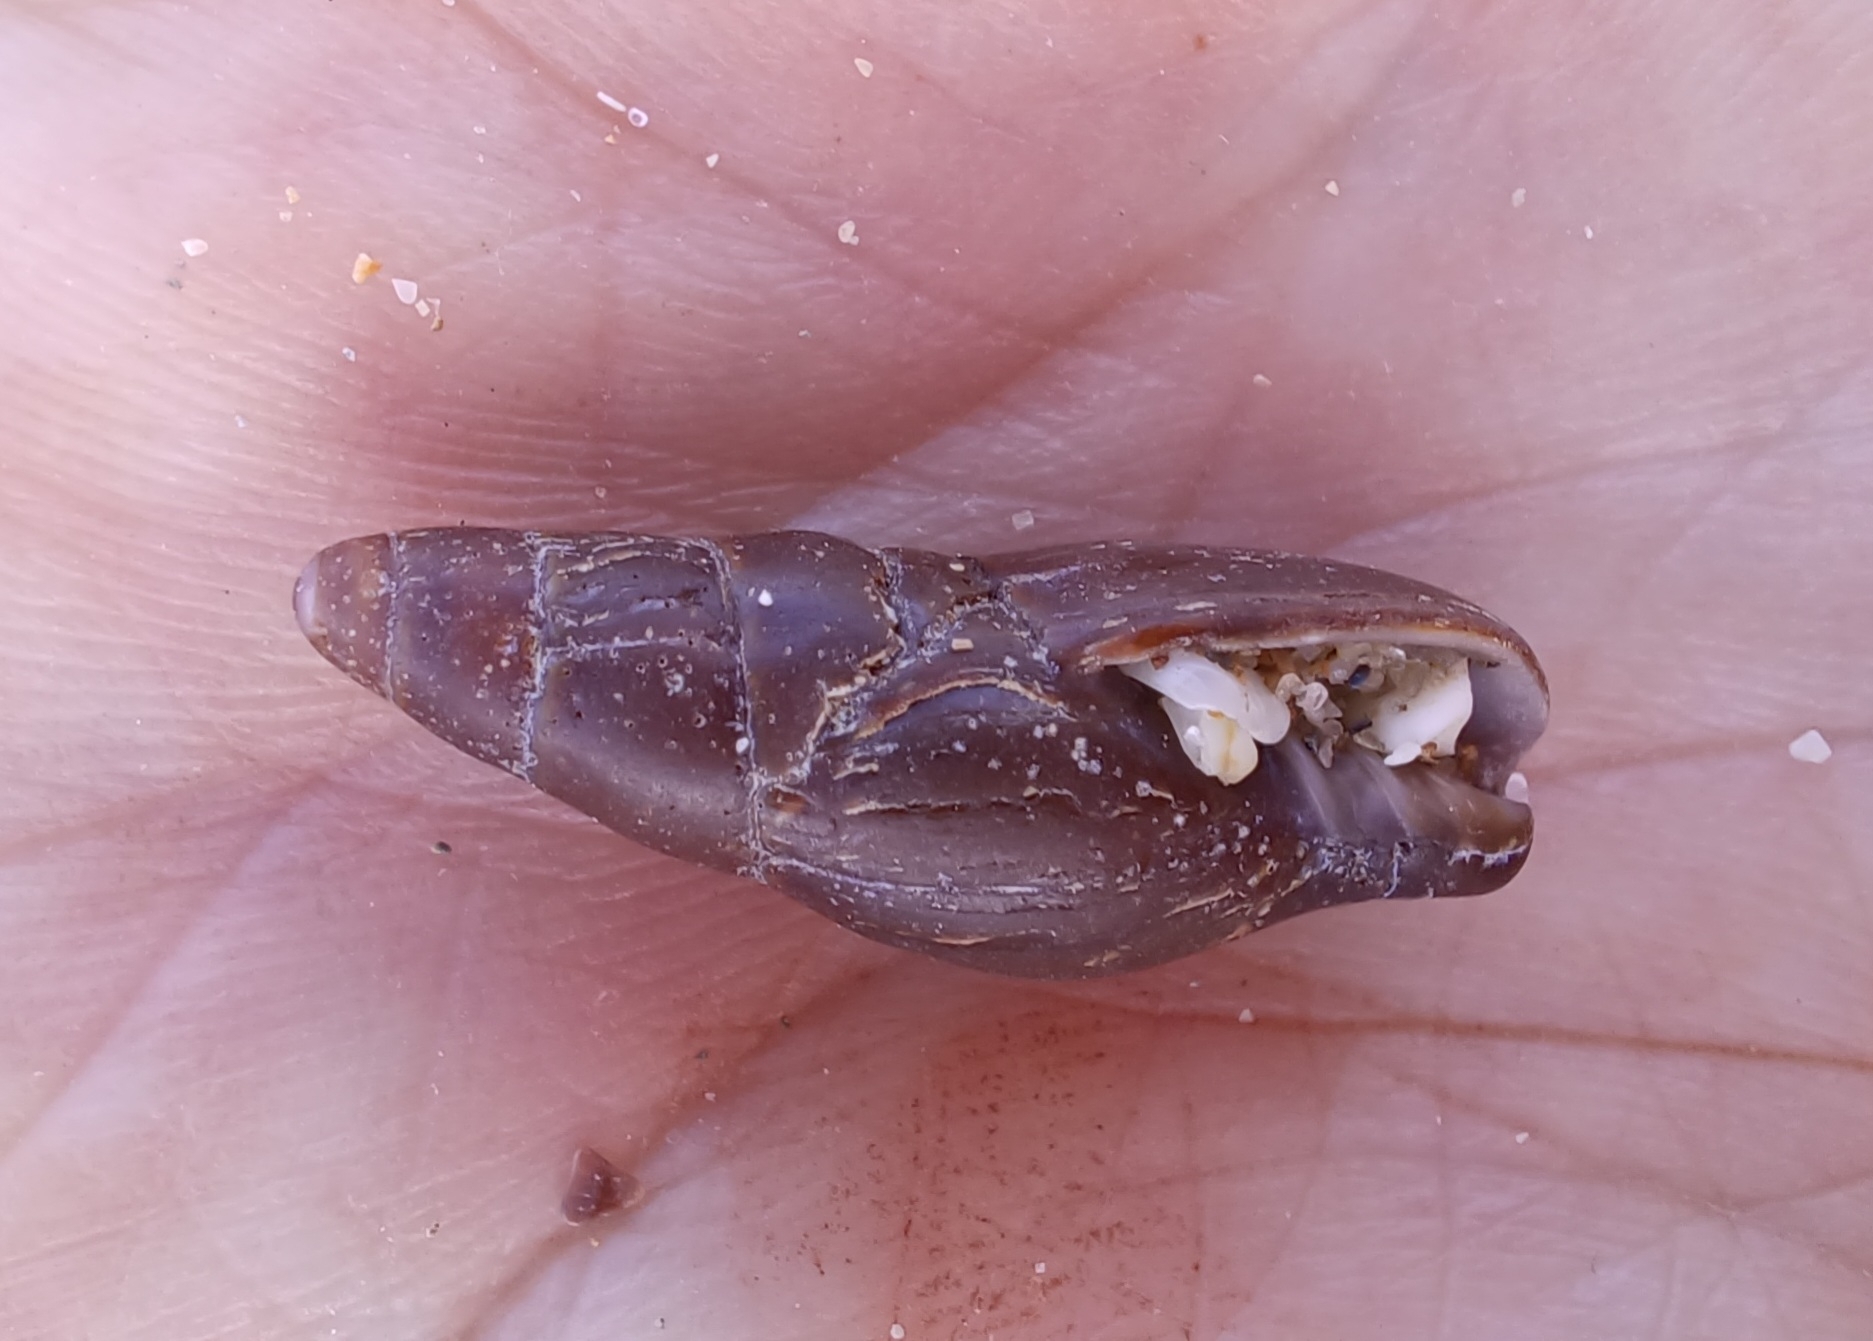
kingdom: Animalia
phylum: Mollusca
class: Gastropoda
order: Neogastropoda
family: Mitridae
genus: Isara
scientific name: Isara badia
